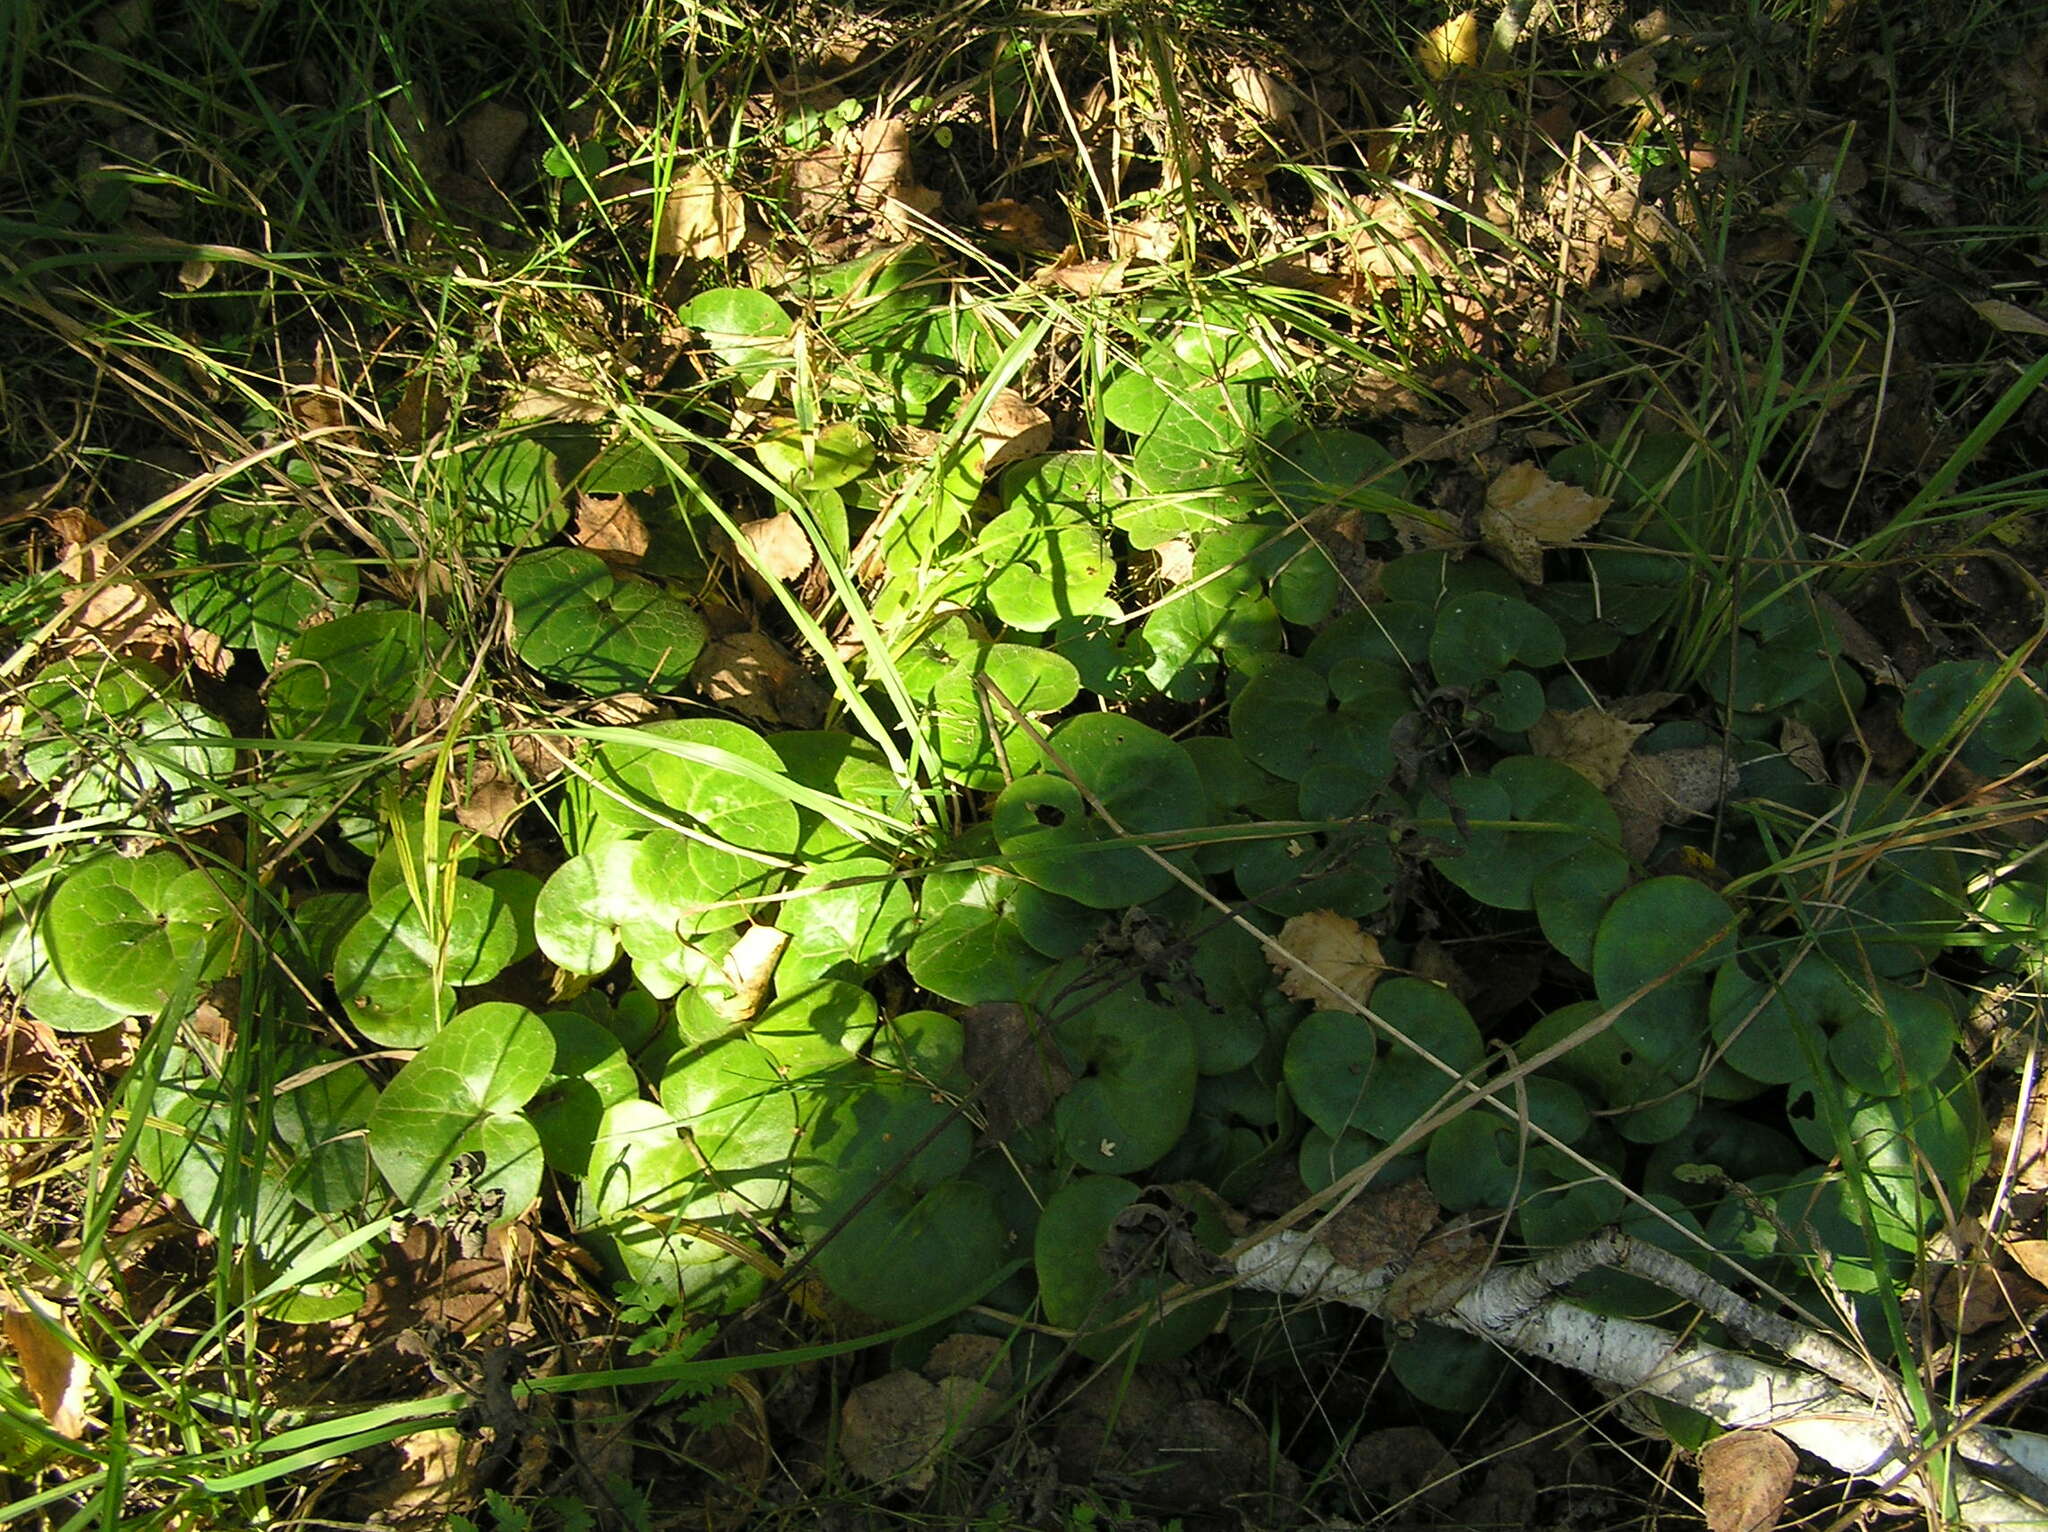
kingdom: Plantae
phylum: Tracheophyta
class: Magnoliopsida
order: Piperales
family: Aristolochiaceae
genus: Asarum
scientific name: Asarum europaeum
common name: Asarabacca
